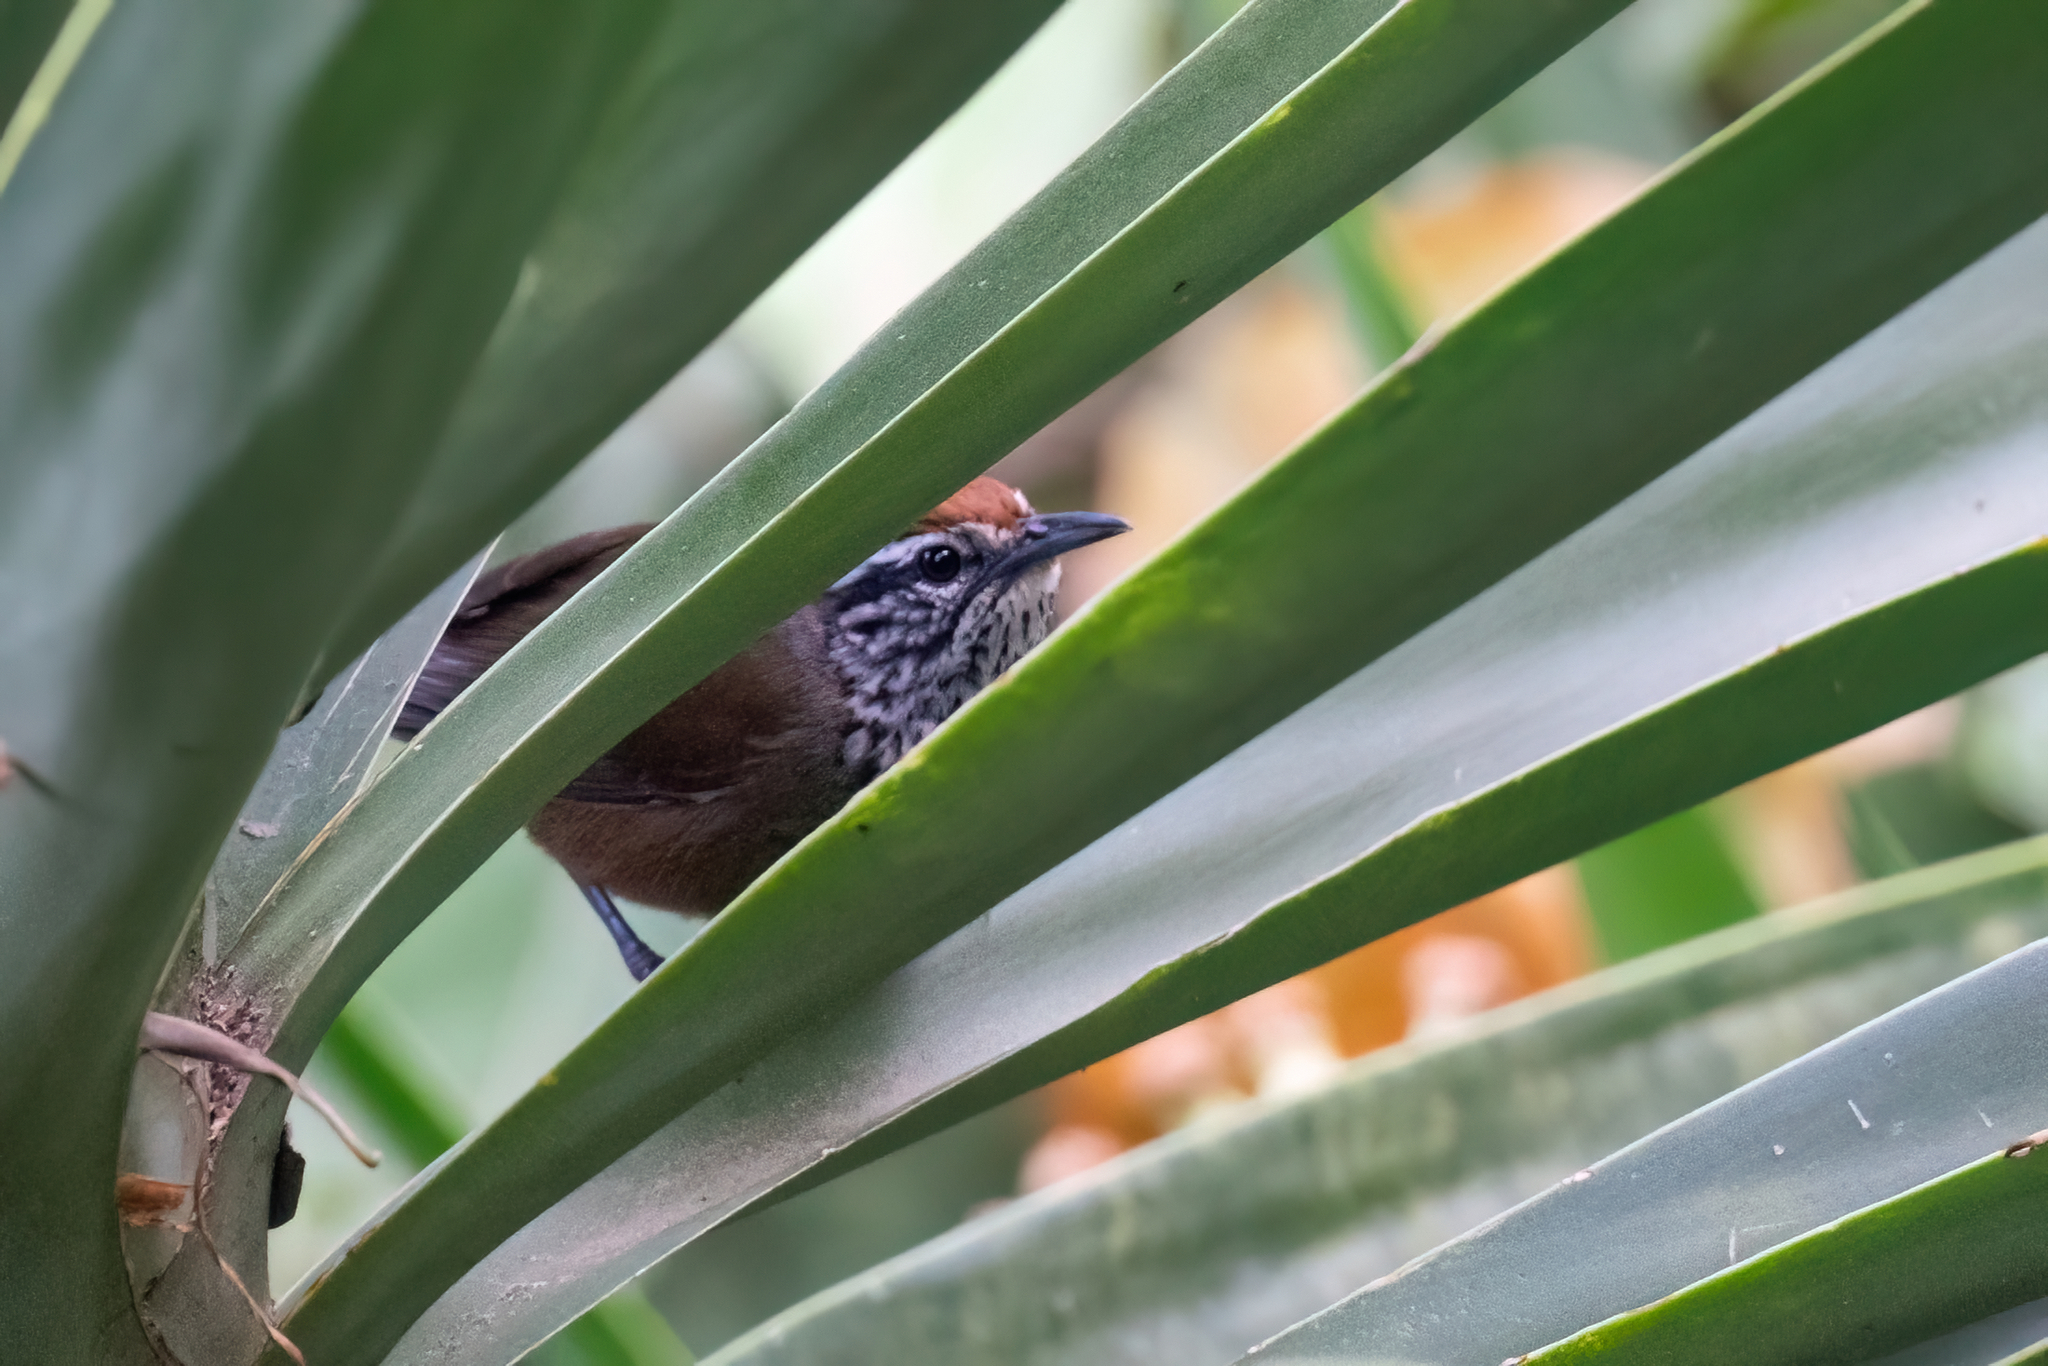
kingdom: Animalia
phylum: Chordata
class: Aves
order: Passeriformes
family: Troglodytidae
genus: Pheugopedius
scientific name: Pheugopedius maculipectus
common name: Spot-breasted wren
